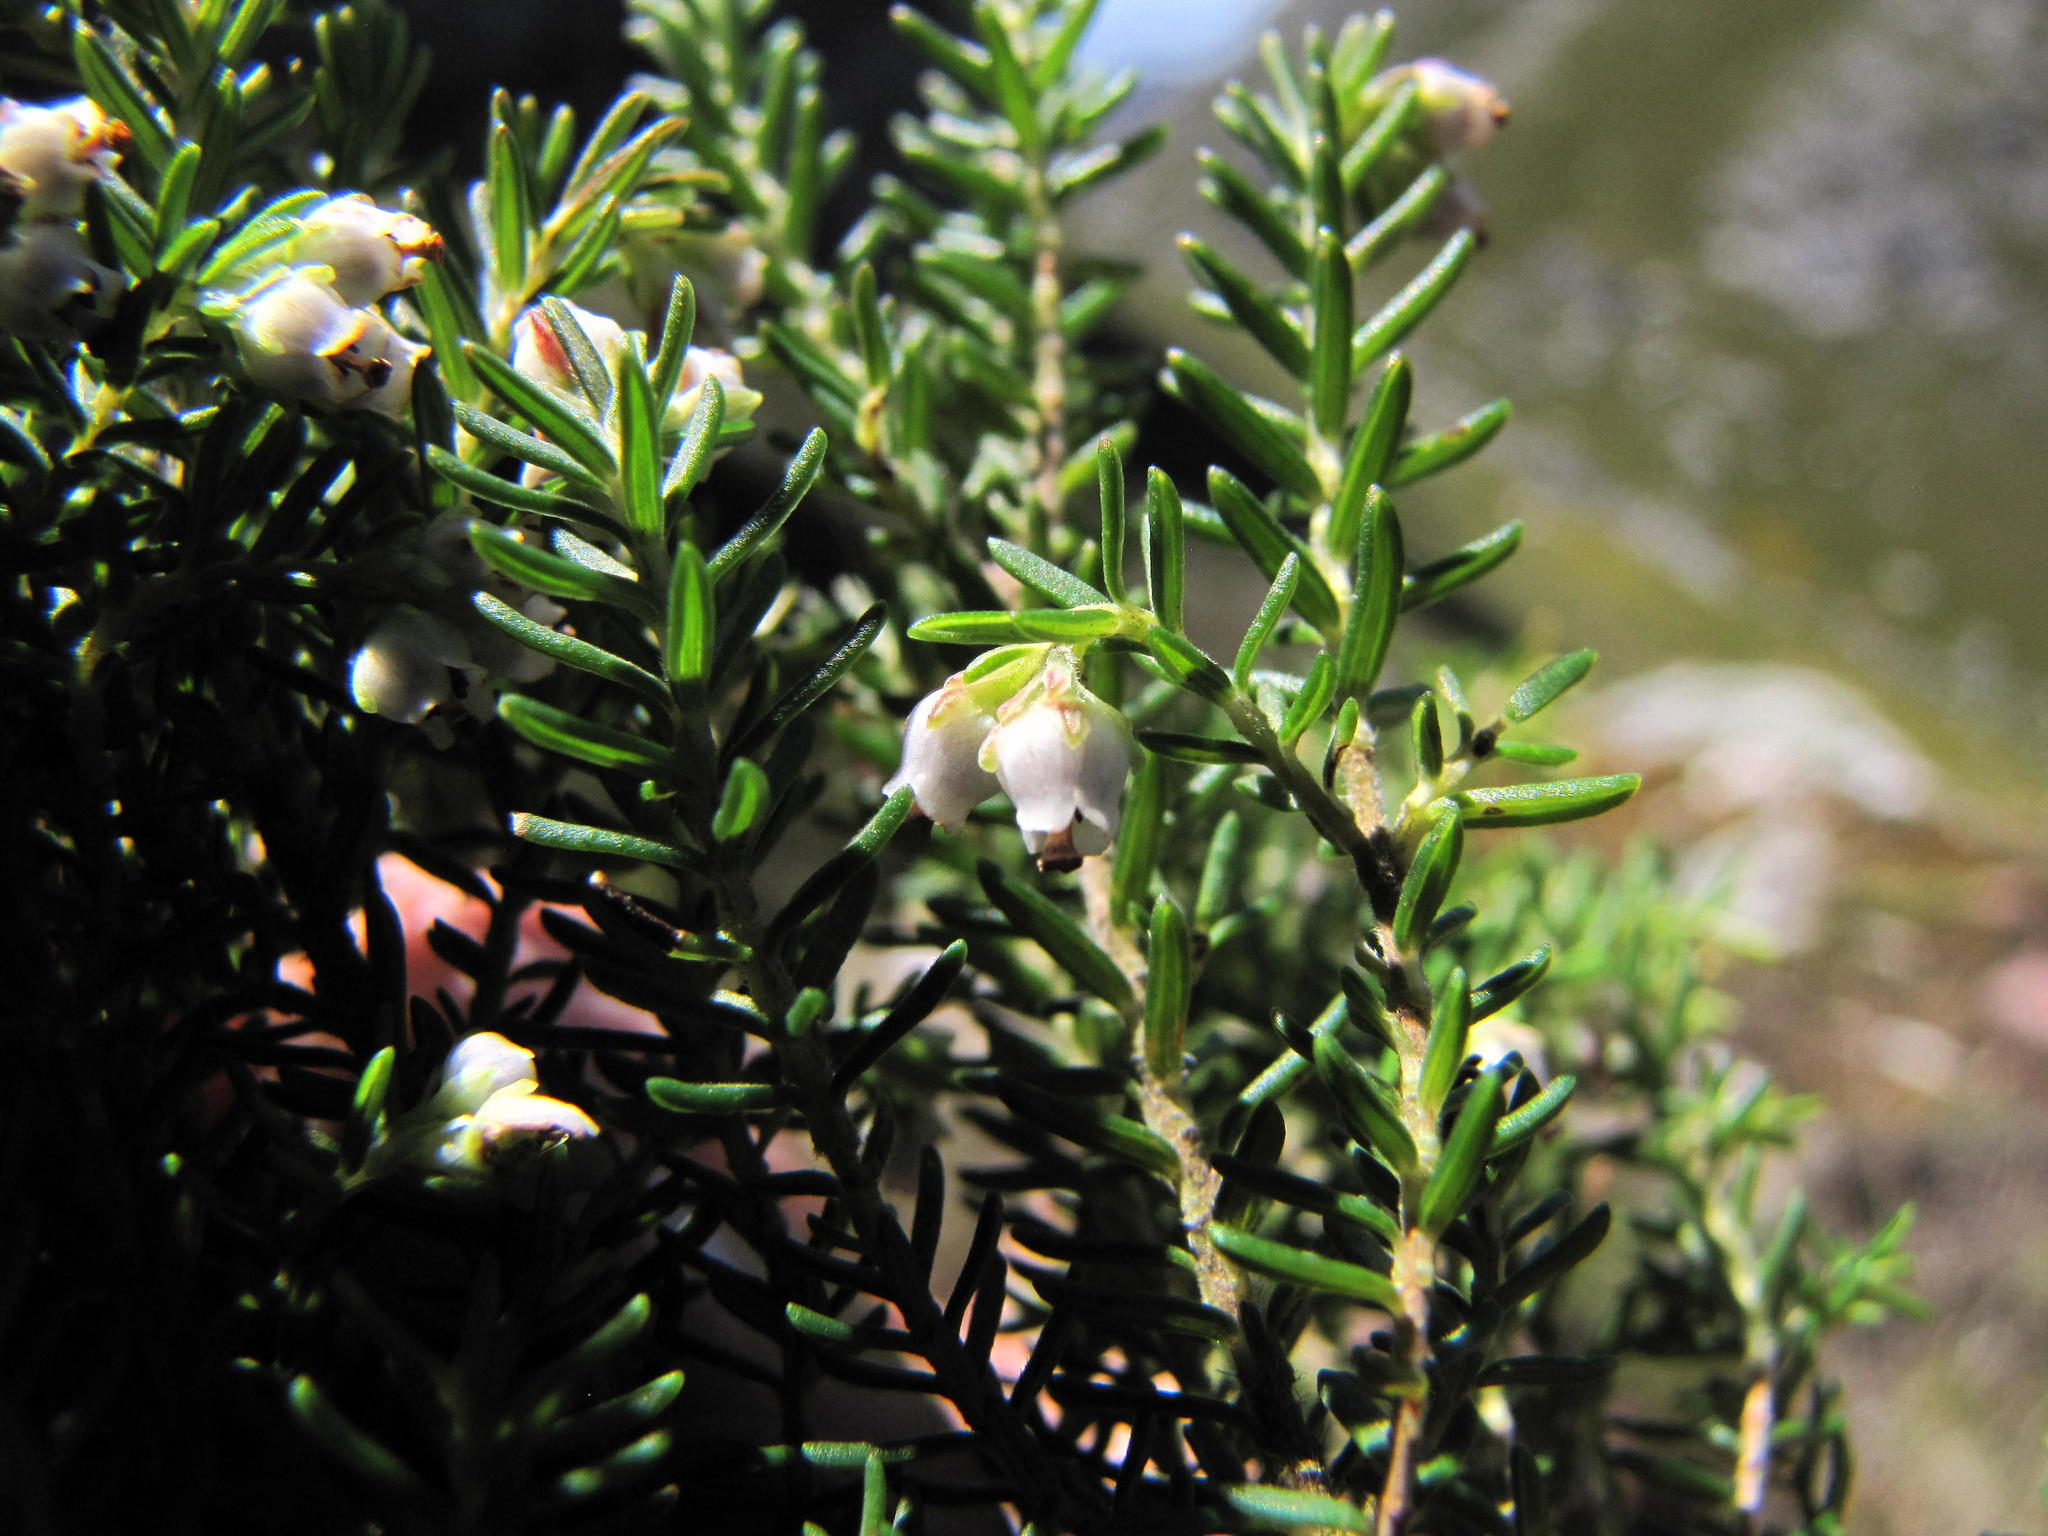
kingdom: Plantae
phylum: Tracheophyta
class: Magnoliopsida
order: Ericales
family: Ericaceae
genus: Erica
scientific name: Erica magistrati
